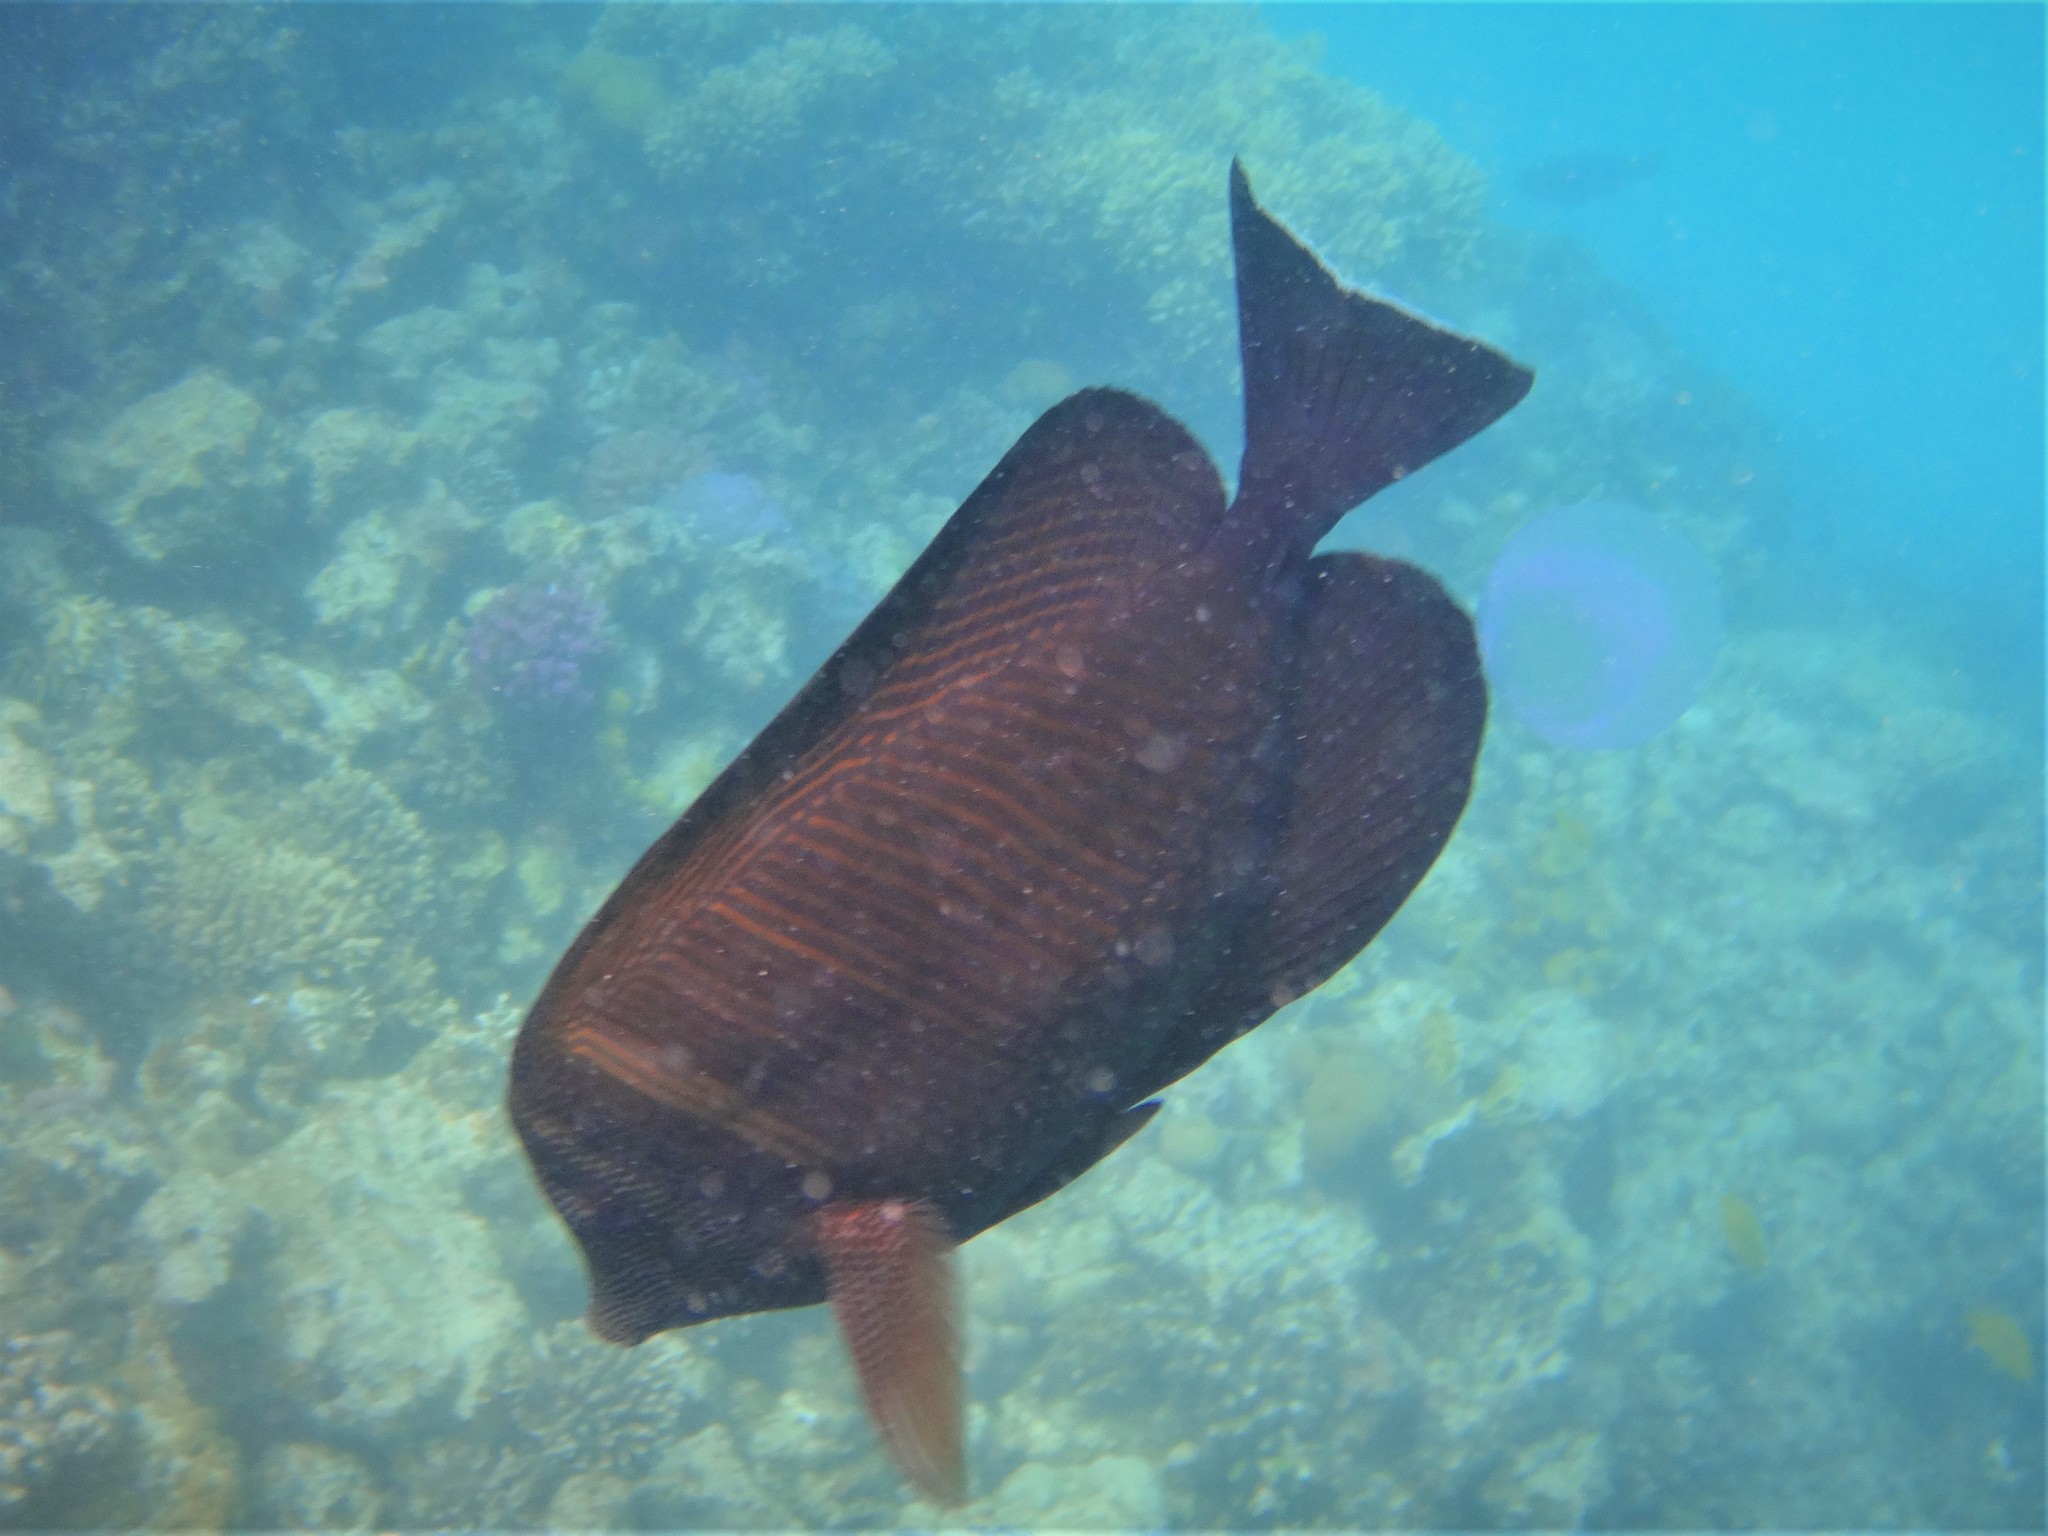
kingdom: Animalia
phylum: Chordata
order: Perciformes
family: Acanthuridae
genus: Zebrasoma
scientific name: Zebrasoma desjardinii
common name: Desjardin's sailfin tang
